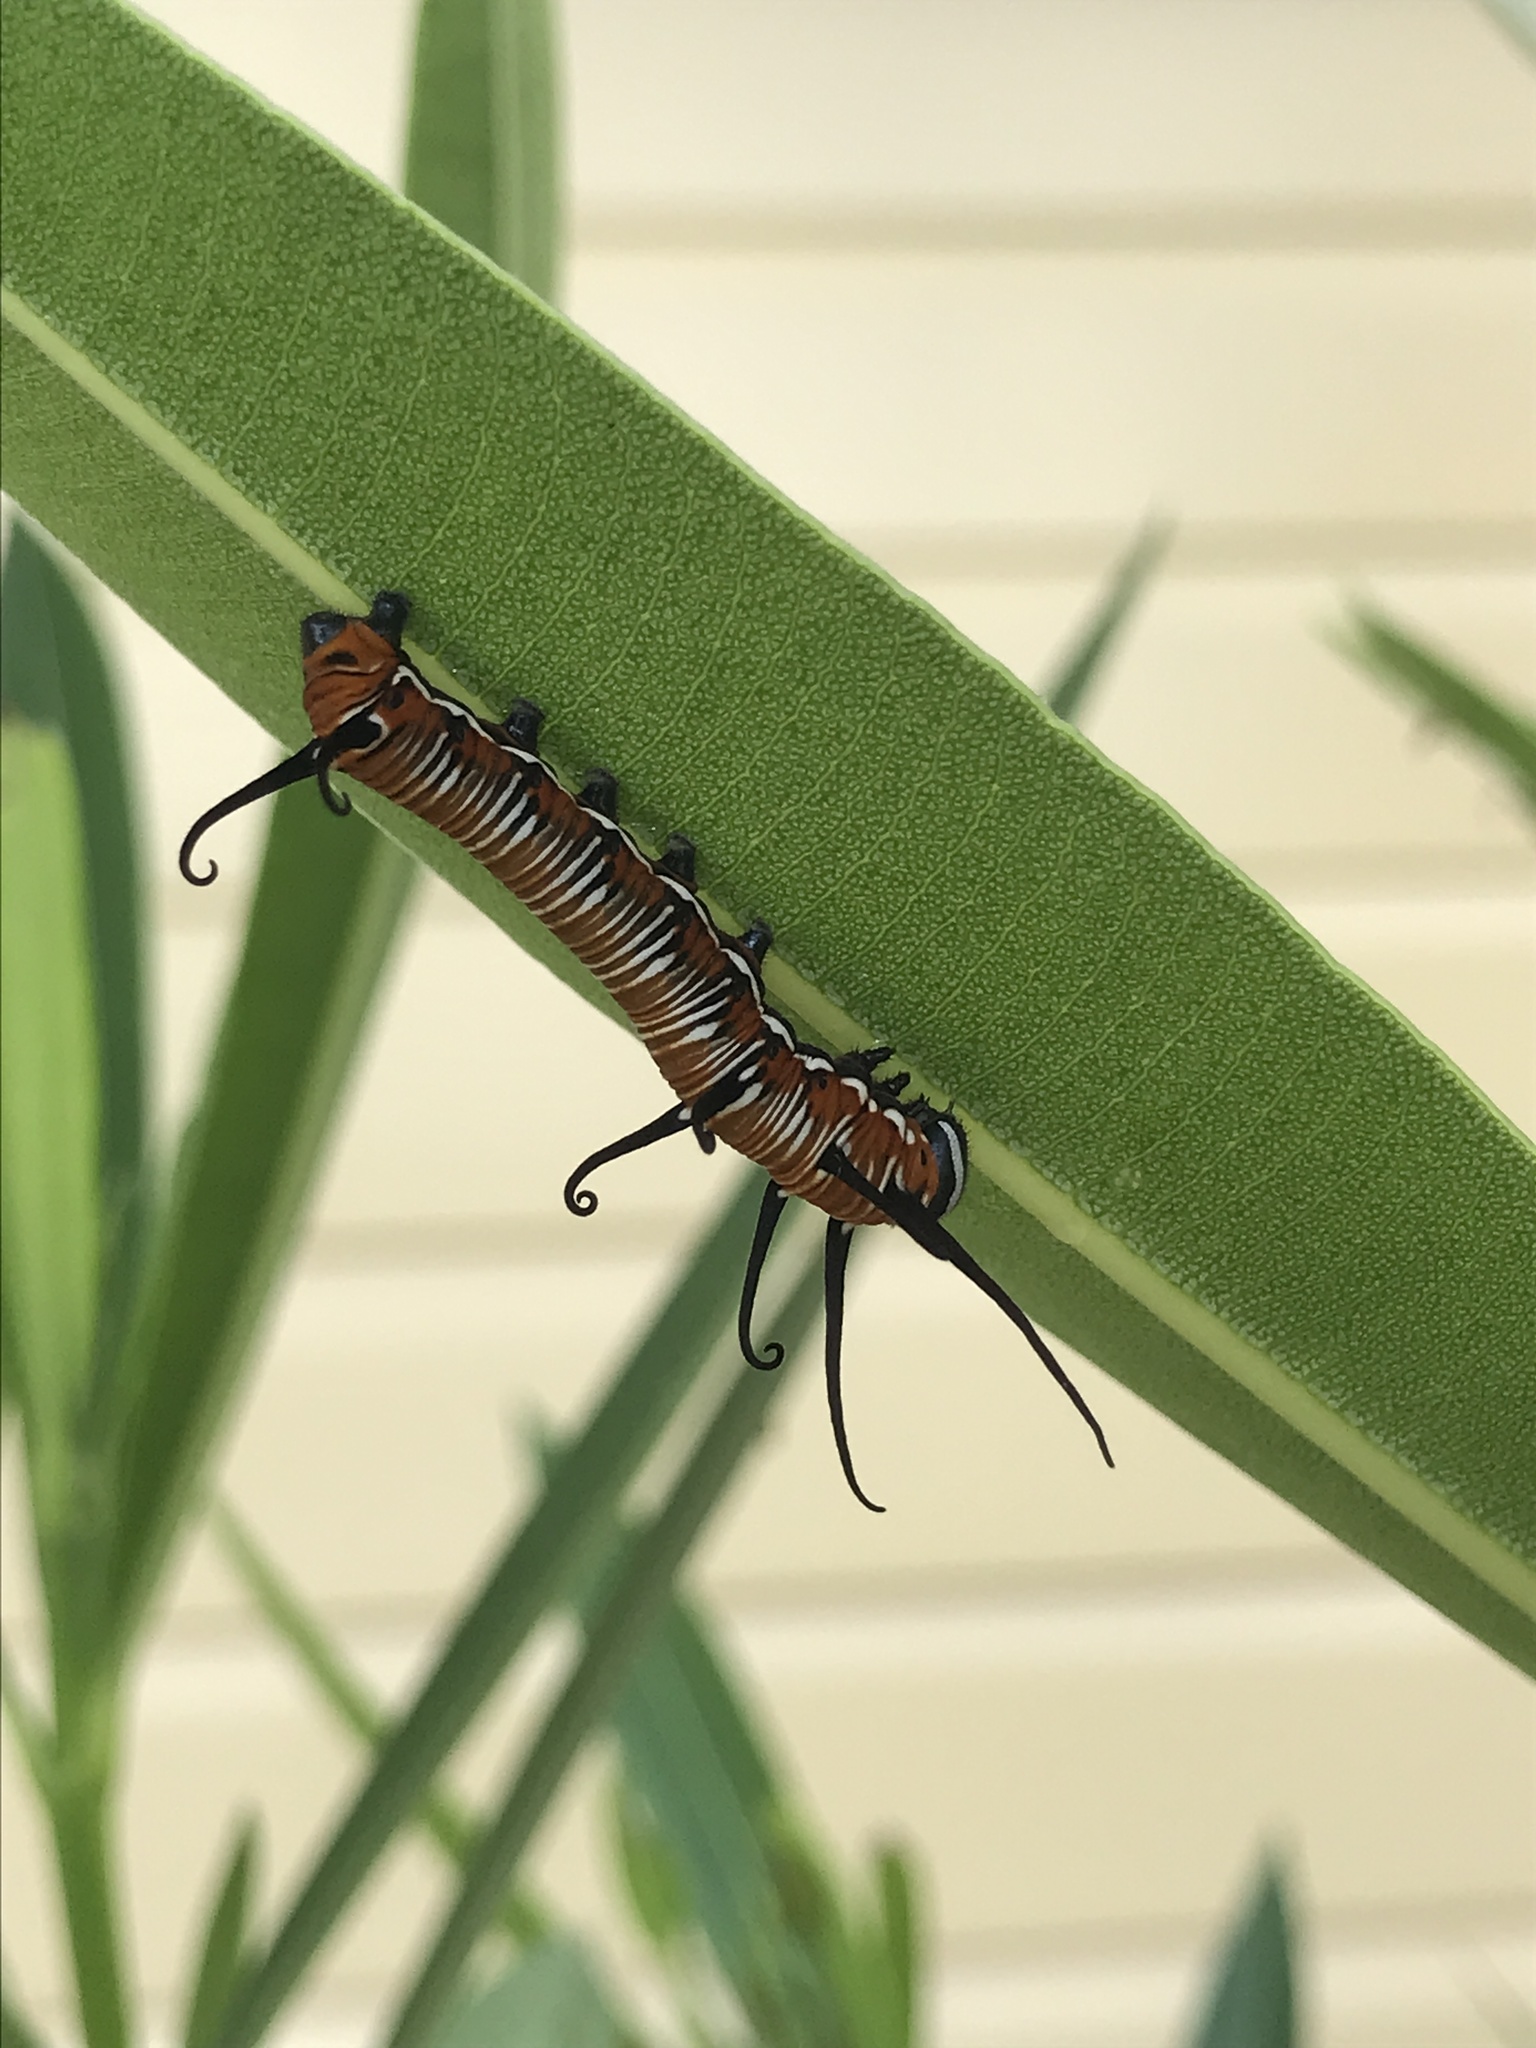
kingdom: Animalia
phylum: Arthropoda
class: Insecta
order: Lepidoptera
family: Nymphalidae
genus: Euploea
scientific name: Euploea core
